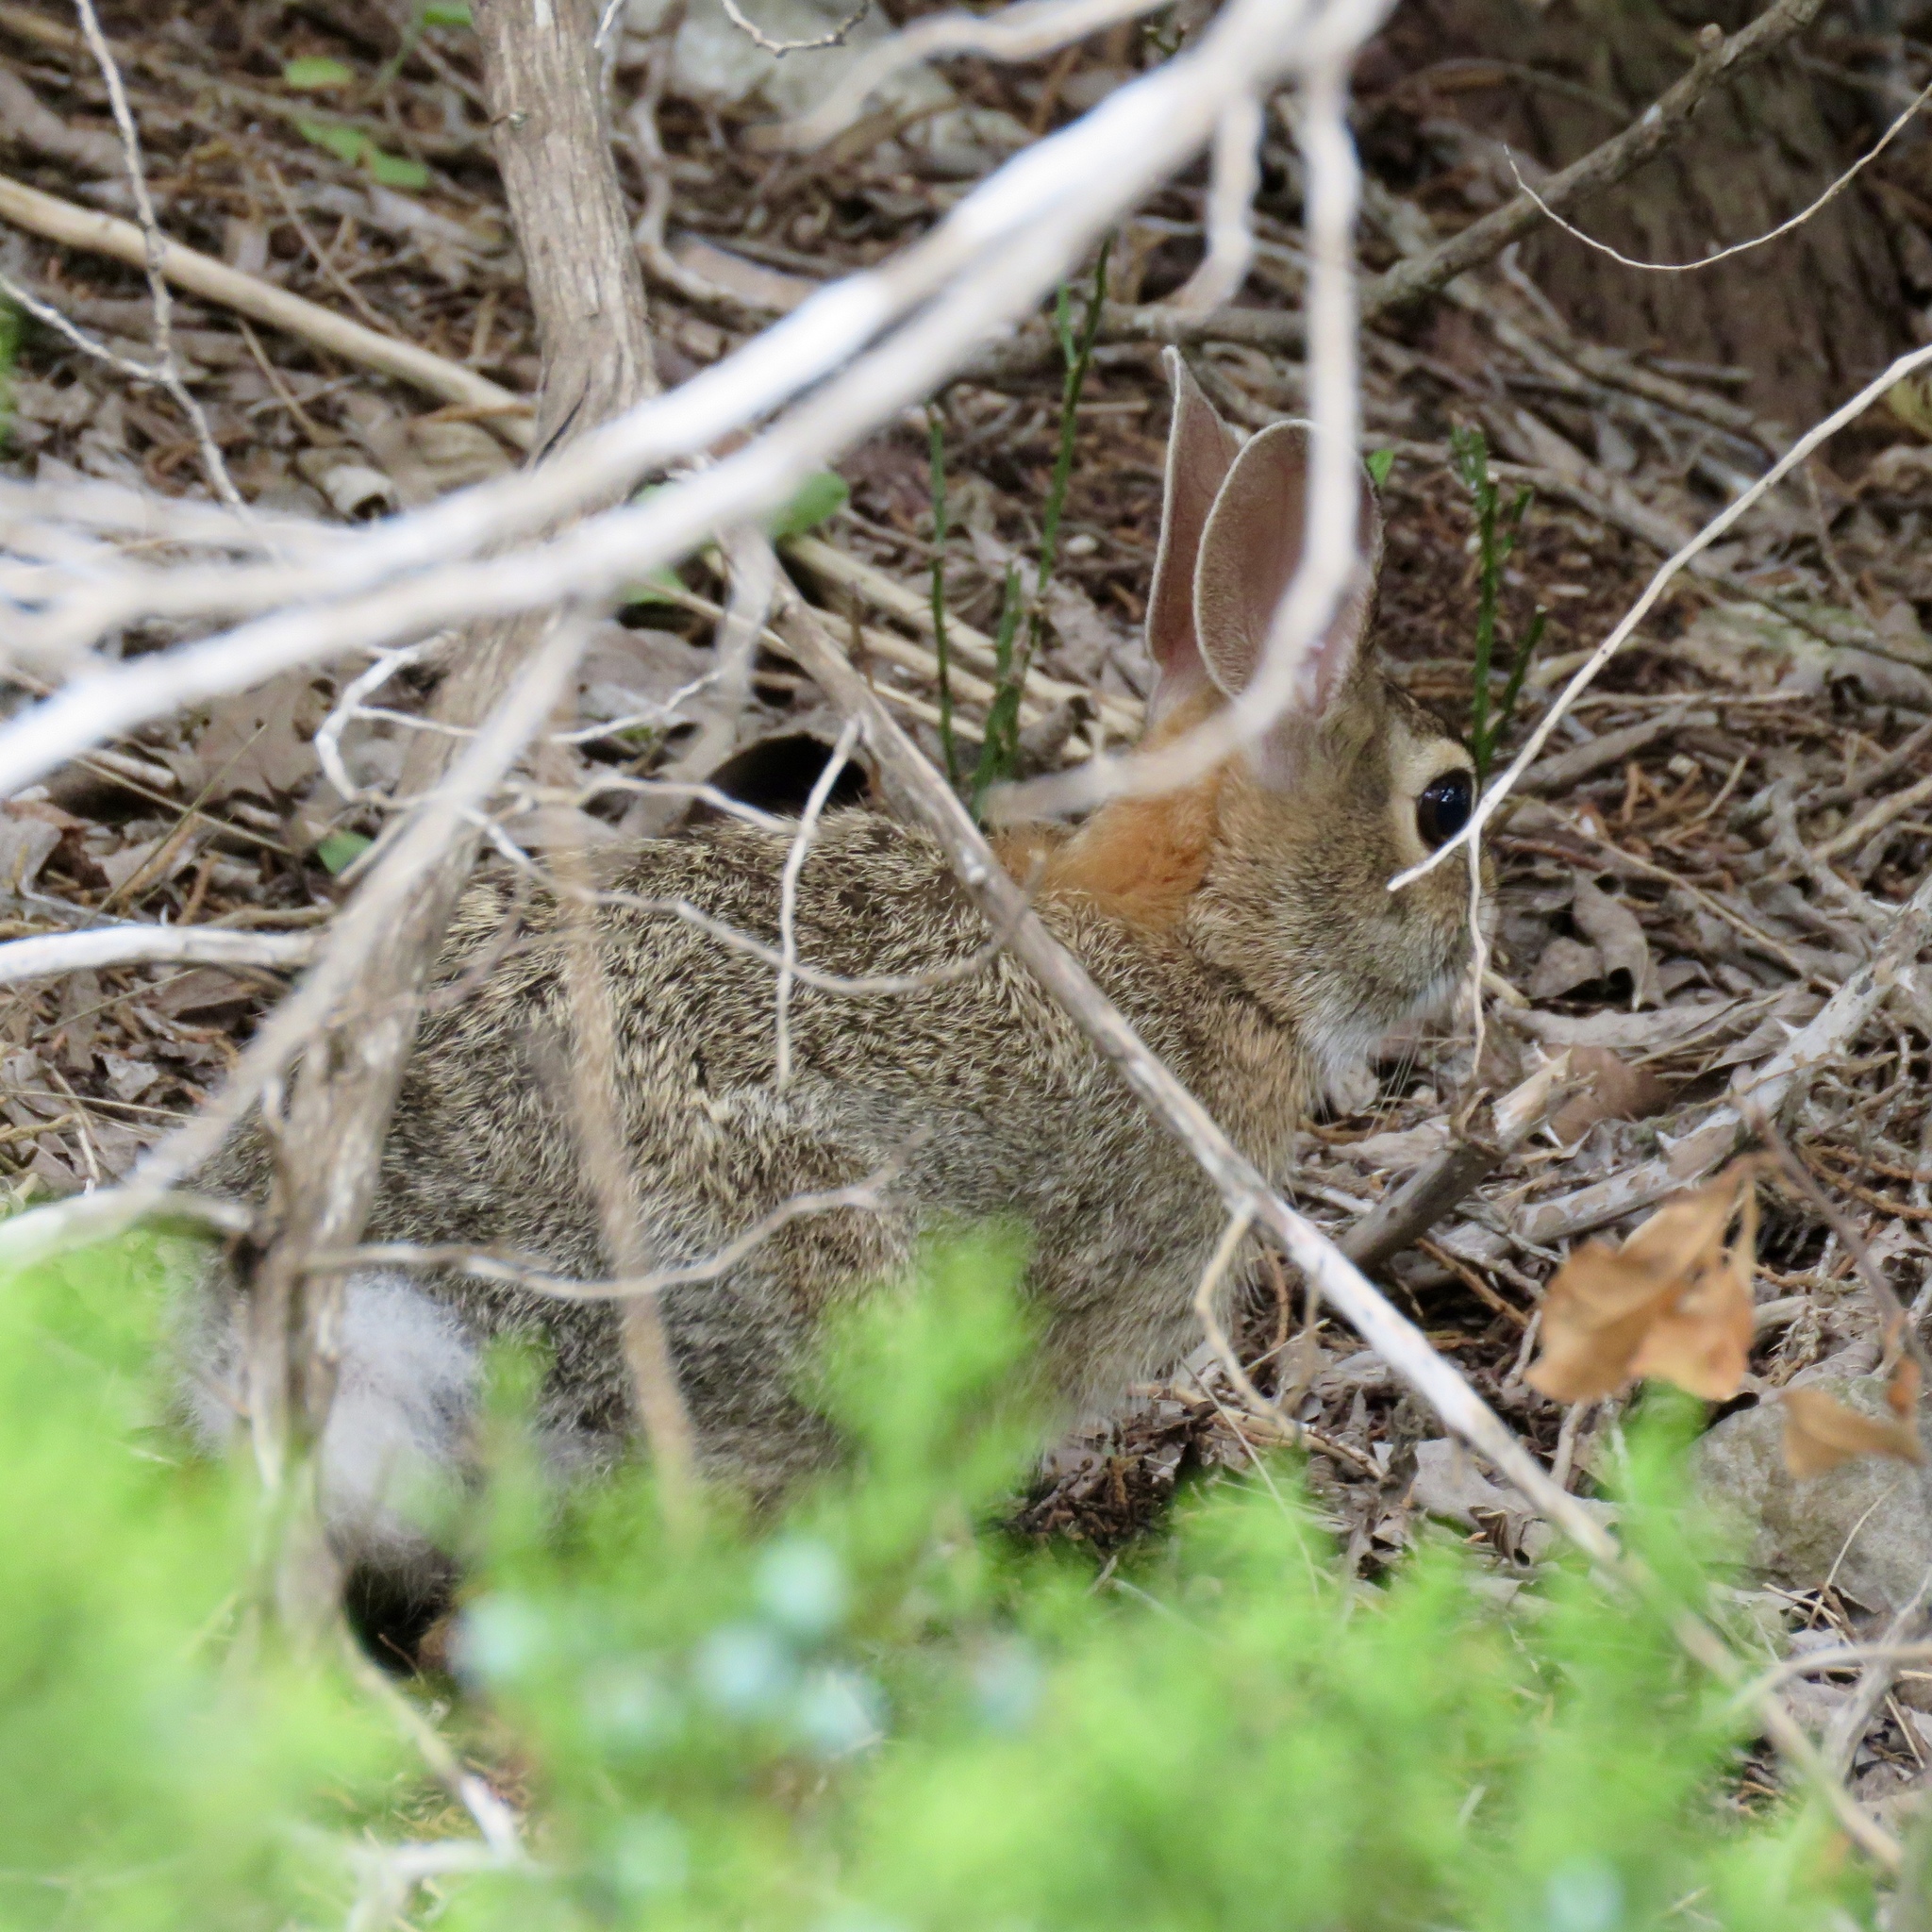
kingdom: Animalia
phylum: Chordata
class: Mammalia
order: Lagomorpha
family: Leporidae
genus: Sylvilagus
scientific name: Sylvilagus floridanus
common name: Eastern cottontail
